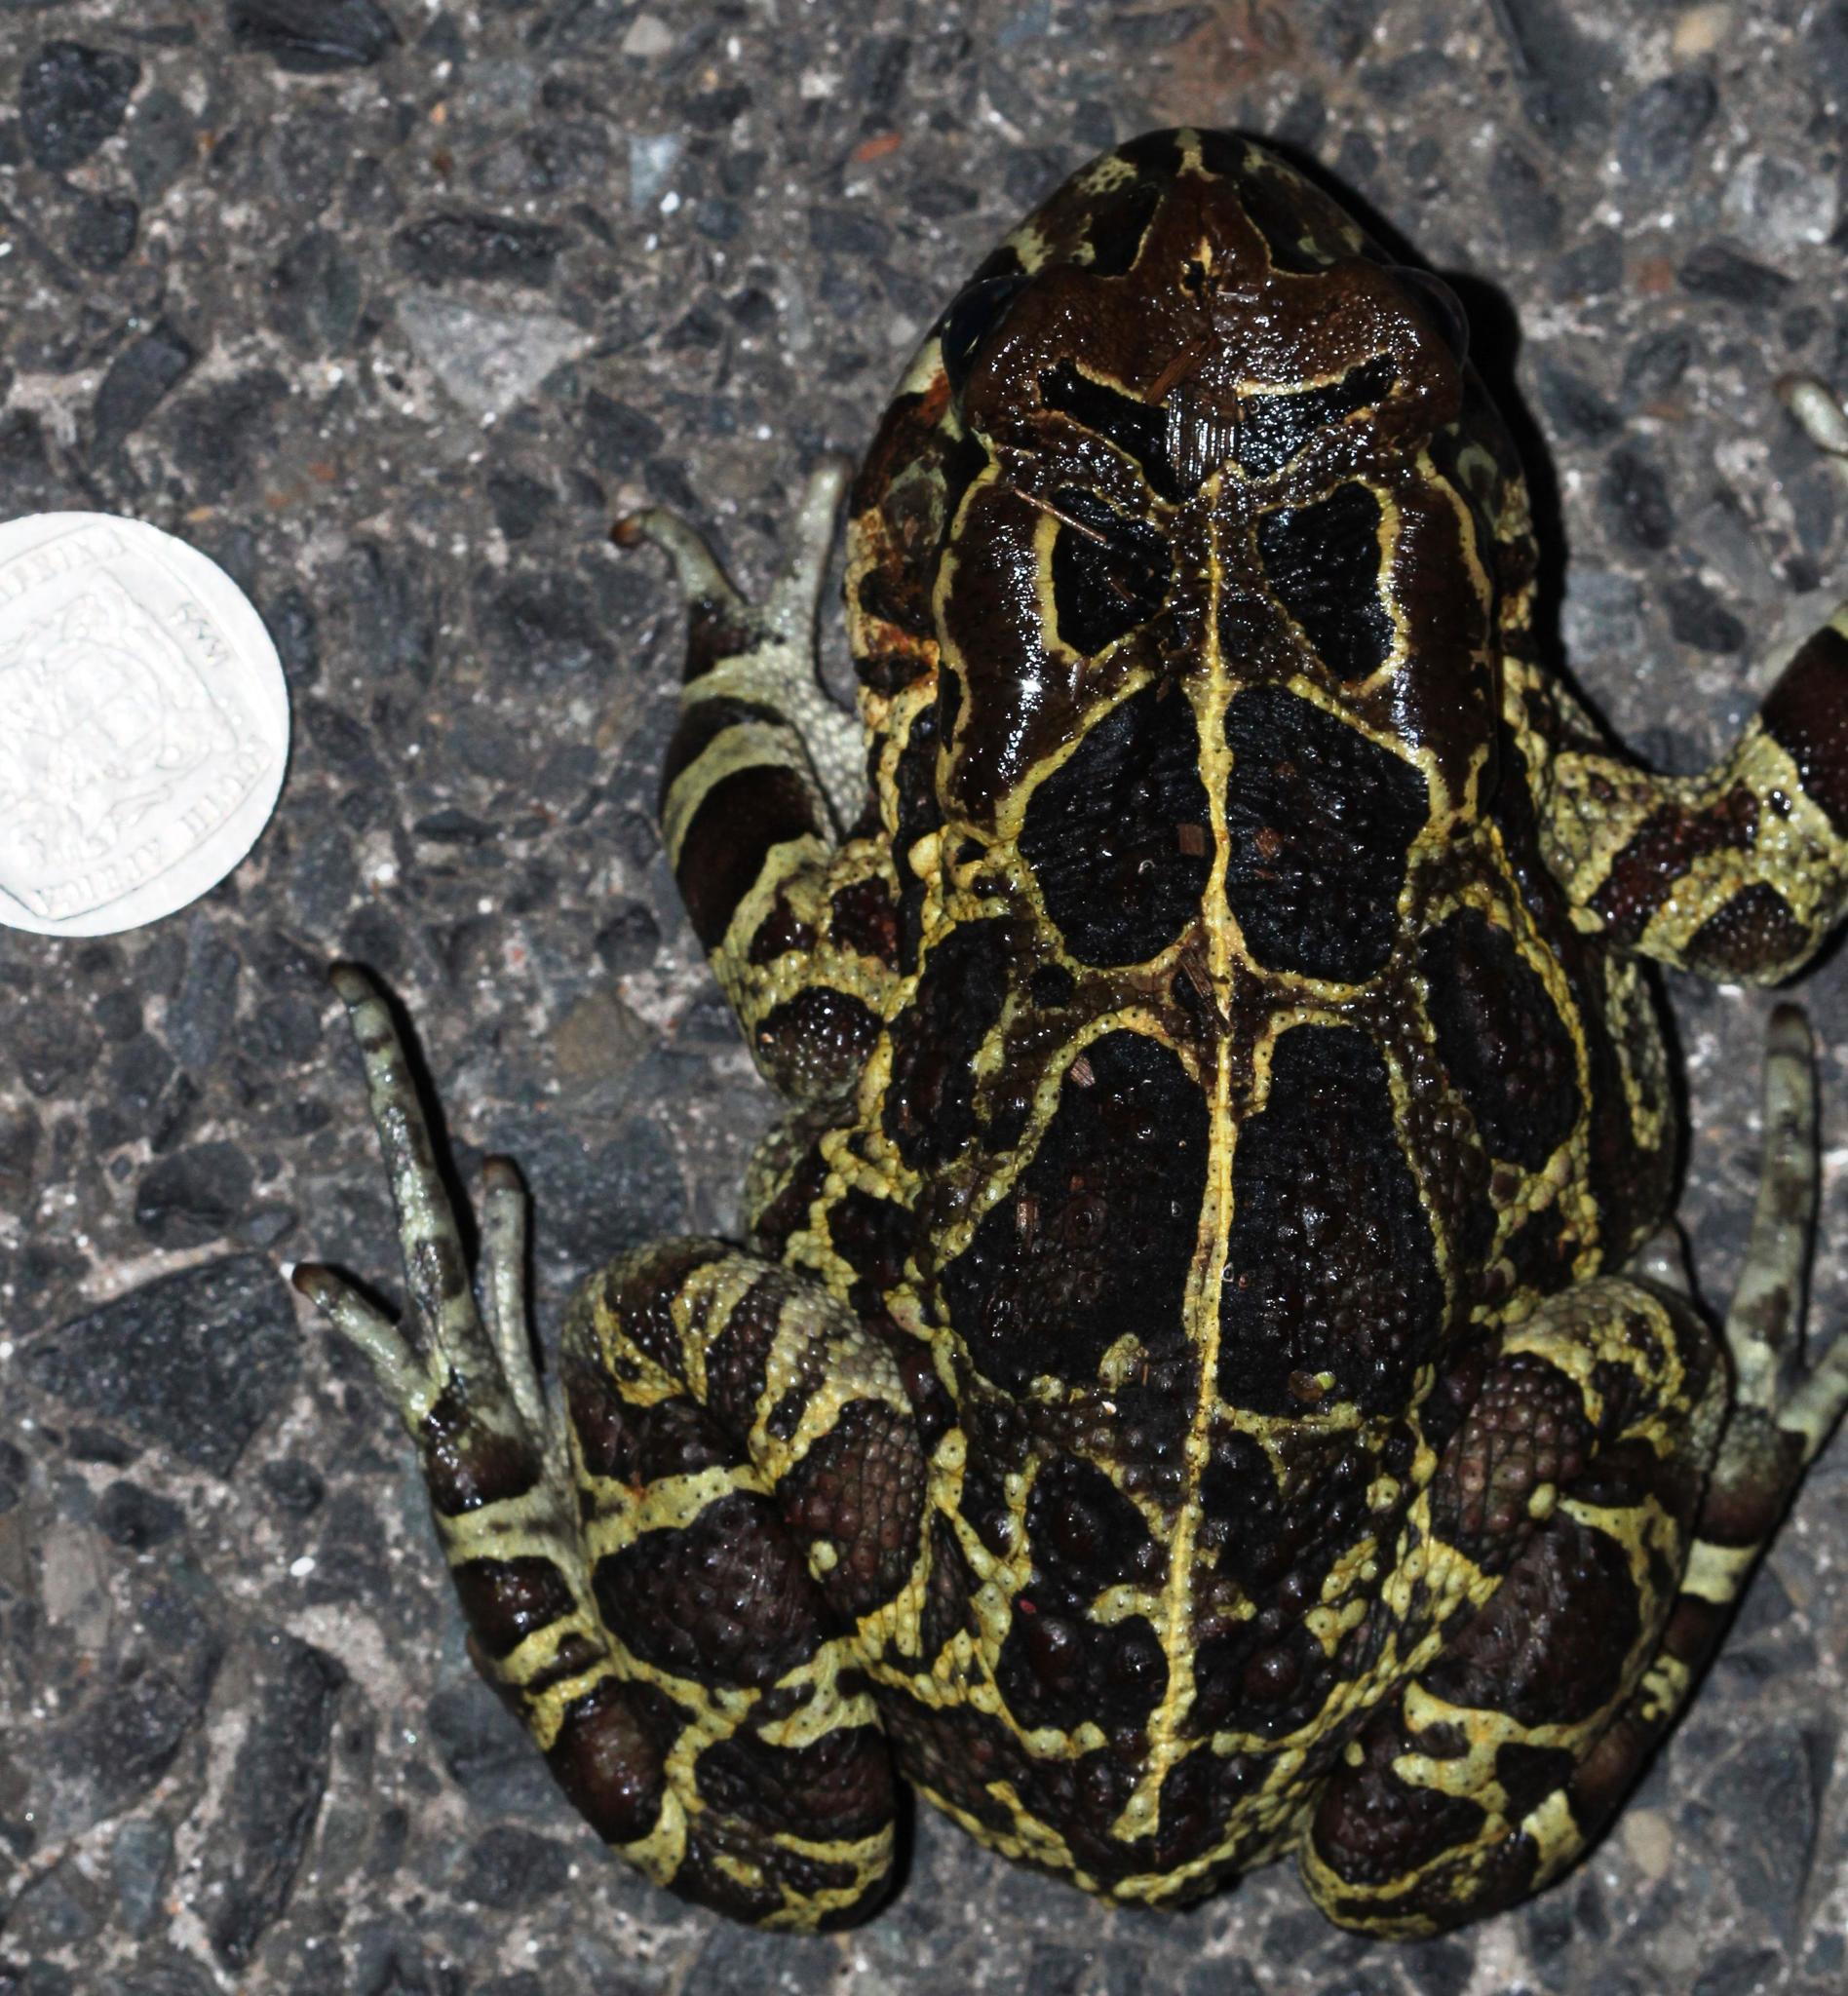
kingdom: Animalia
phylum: Chordata
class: Amphibia
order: Anura
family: Bufonidae
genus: Sclerophrys
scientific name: Sclerophrys pantherina
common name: Panther toad
